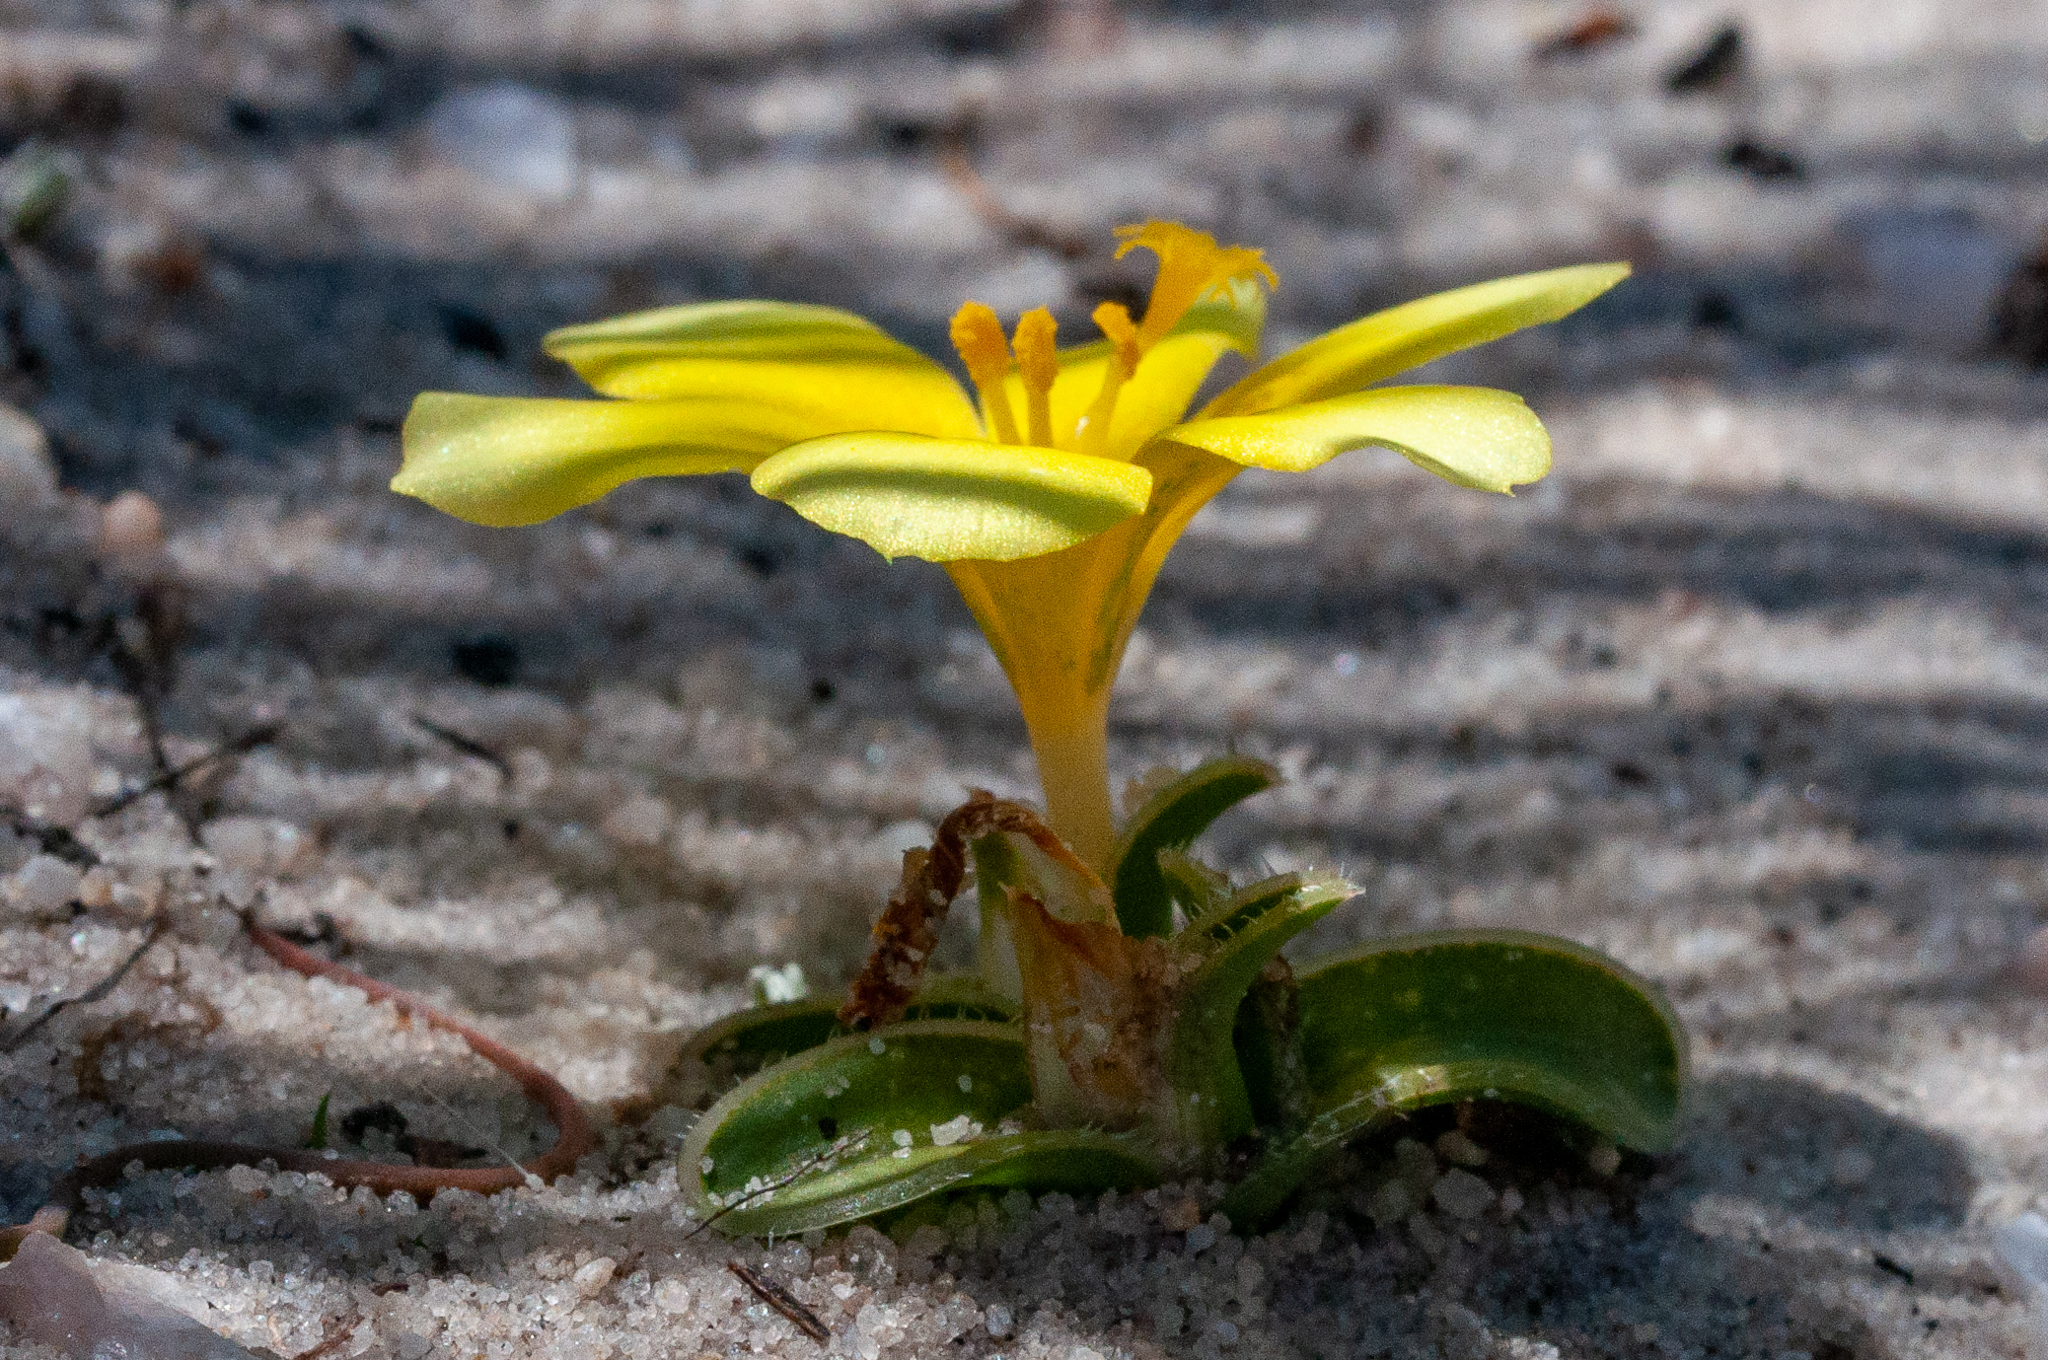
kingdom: Plantae
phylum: Tracheophyta
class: Liliopsida
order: Asparagales
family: Iridaceae
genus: Moraea
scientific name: Moraea luteoalba
